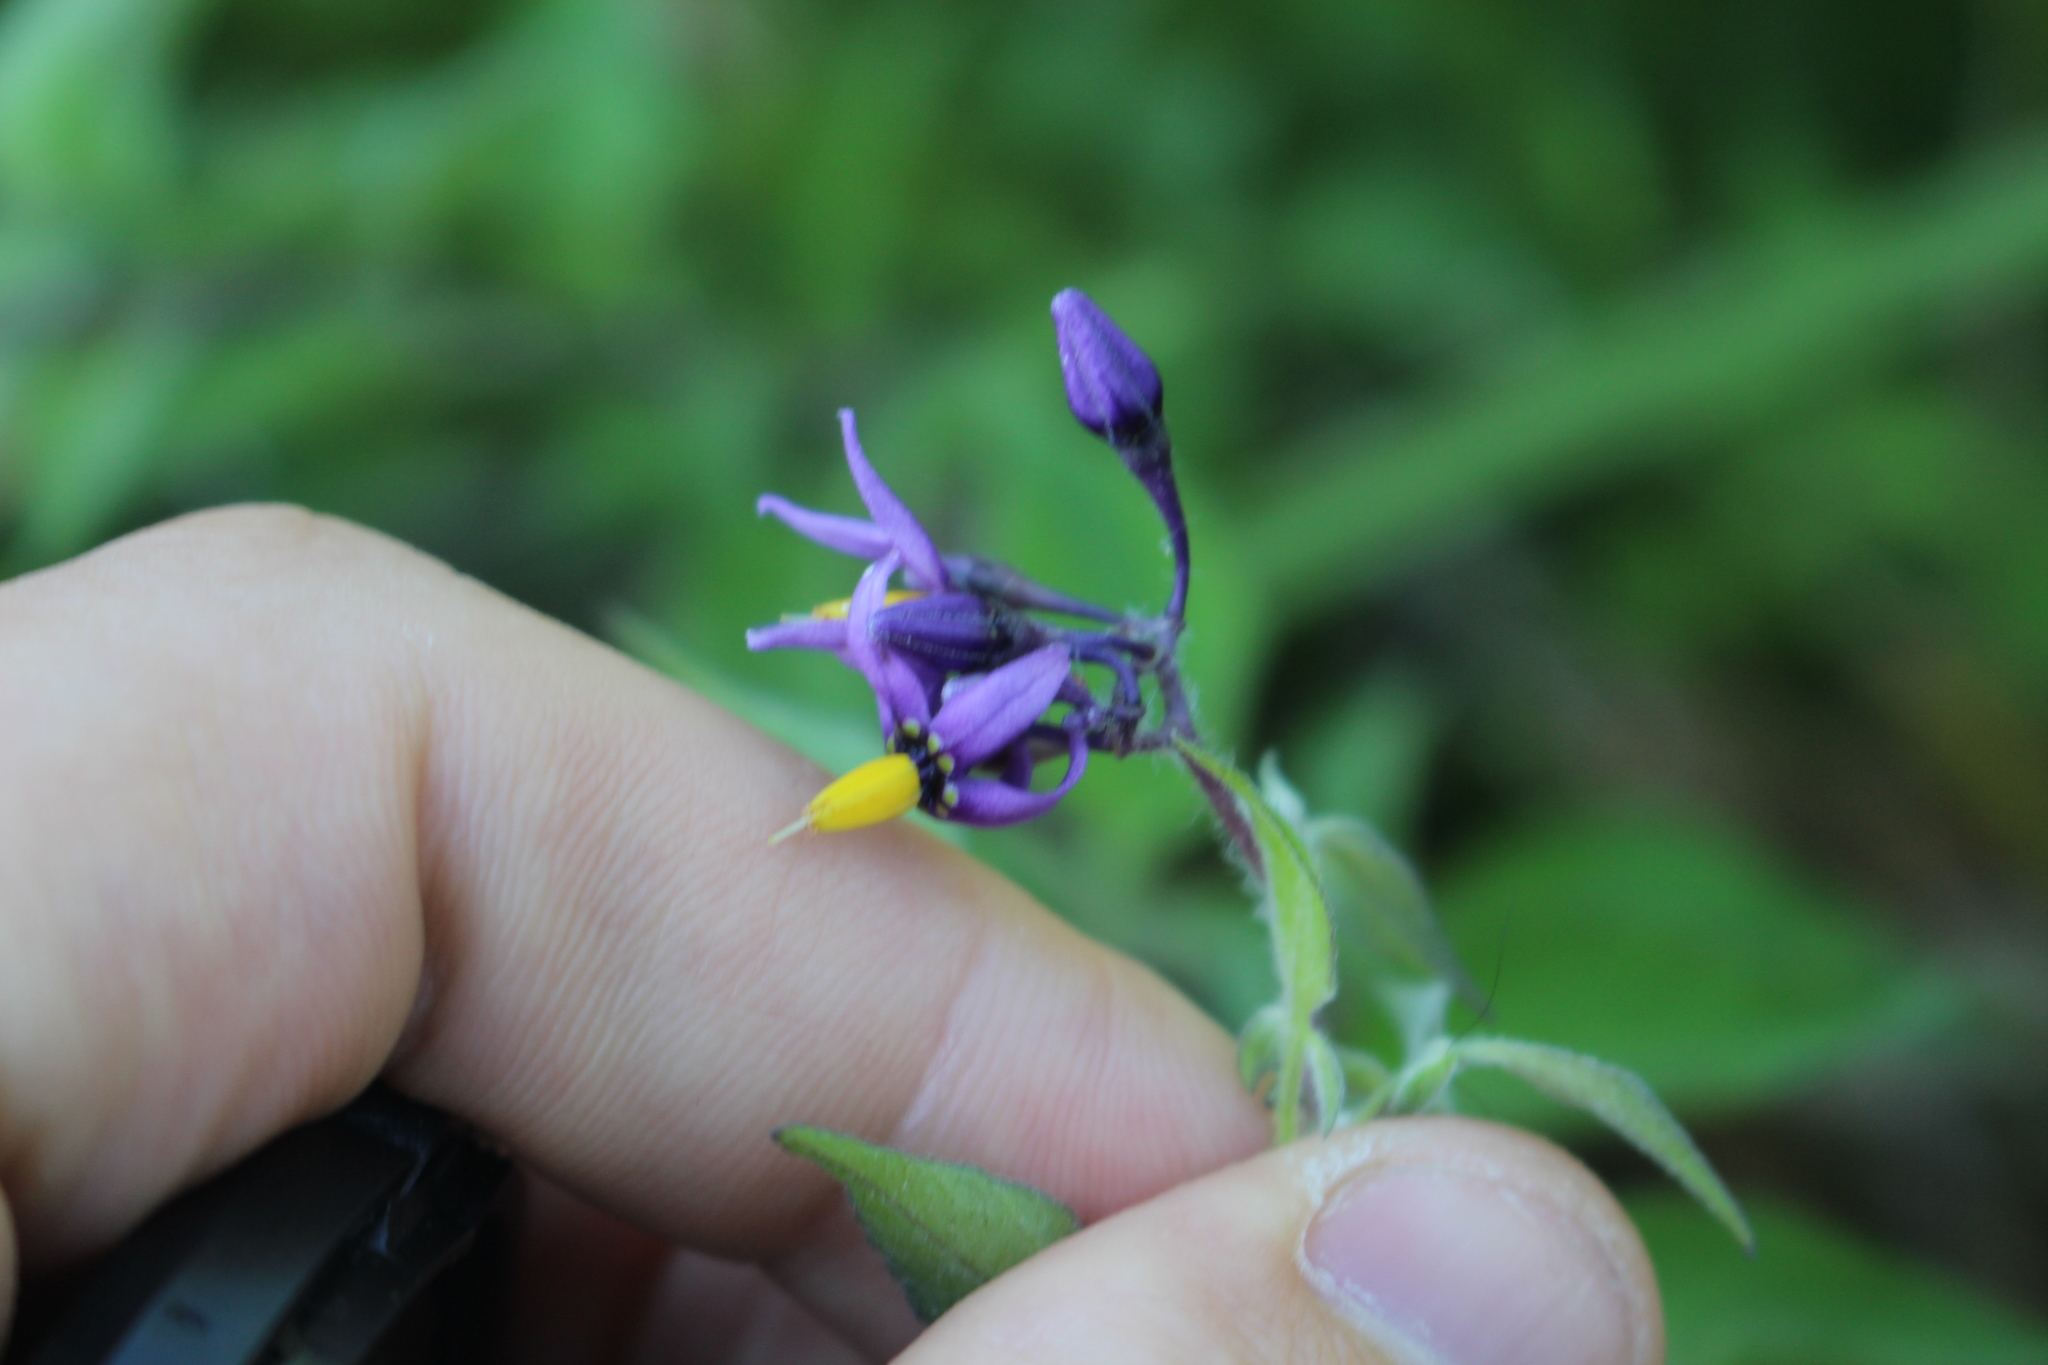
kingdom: Plantae
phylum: Tracheophyta
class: Magnoliopsida
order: Solanales
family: Solanaceae
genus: Solanum
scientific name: Solanum dulcamara
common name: Climbing nightshade
